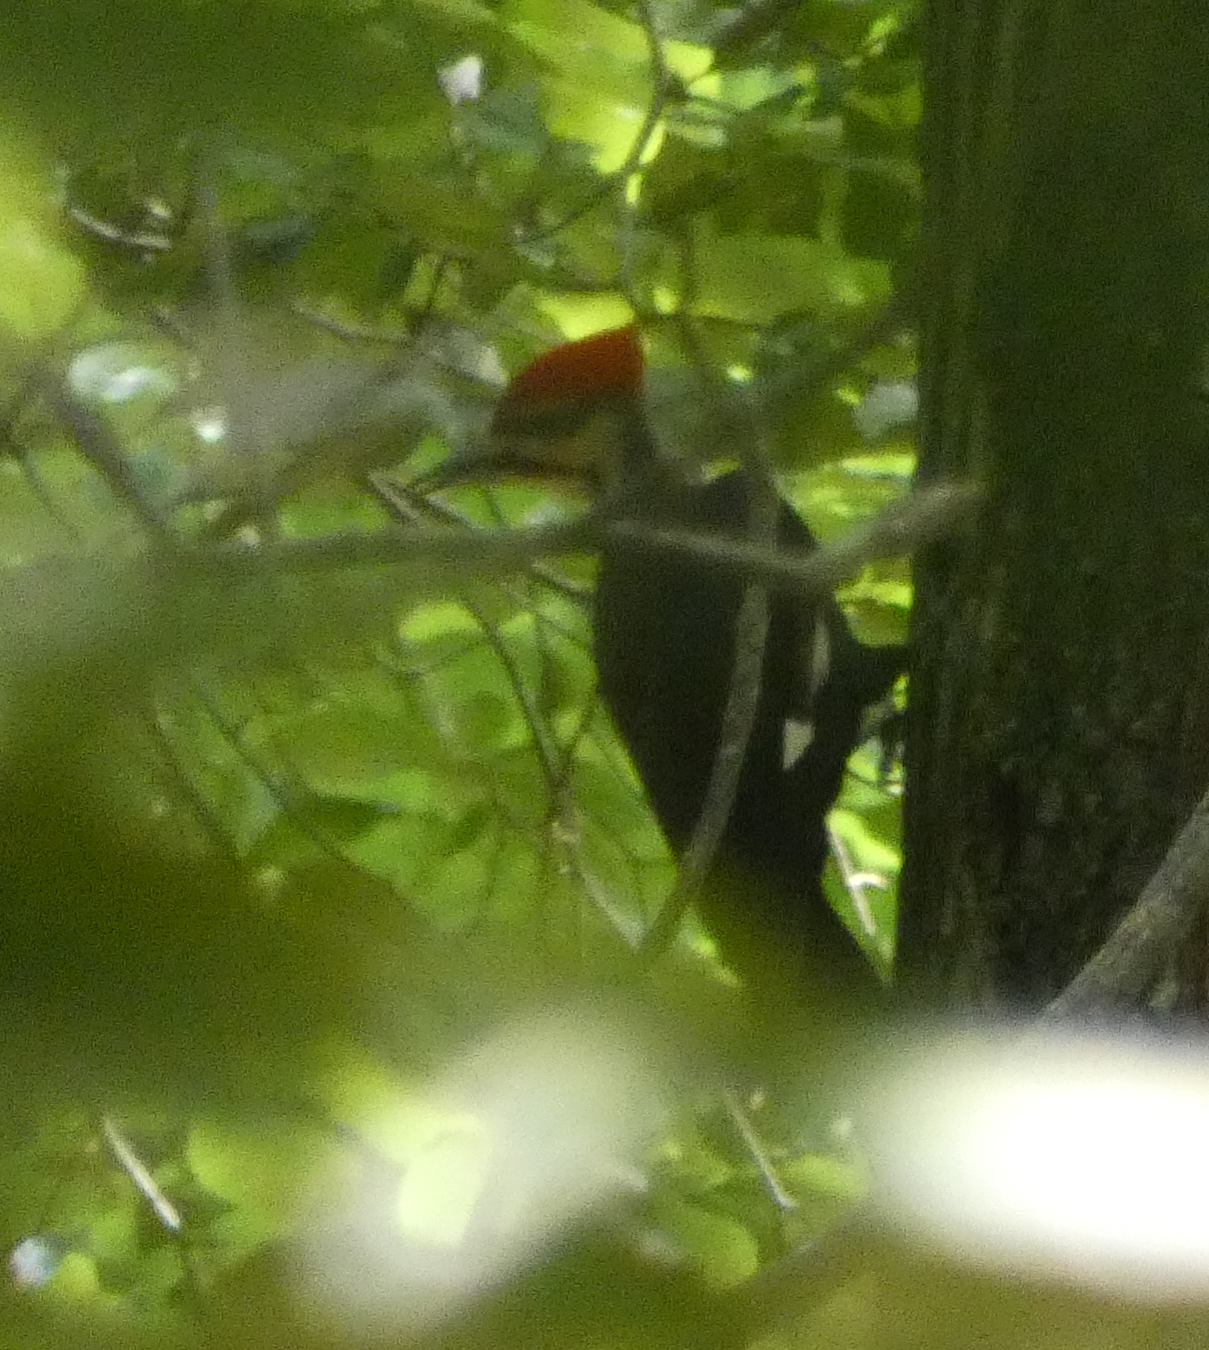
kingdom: Animalia
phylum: Chordata
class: Aves
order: Piciformes
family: Picidae
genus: Dryocopus
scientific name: Dryocopus pileatus
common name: Pileated woodpecker
